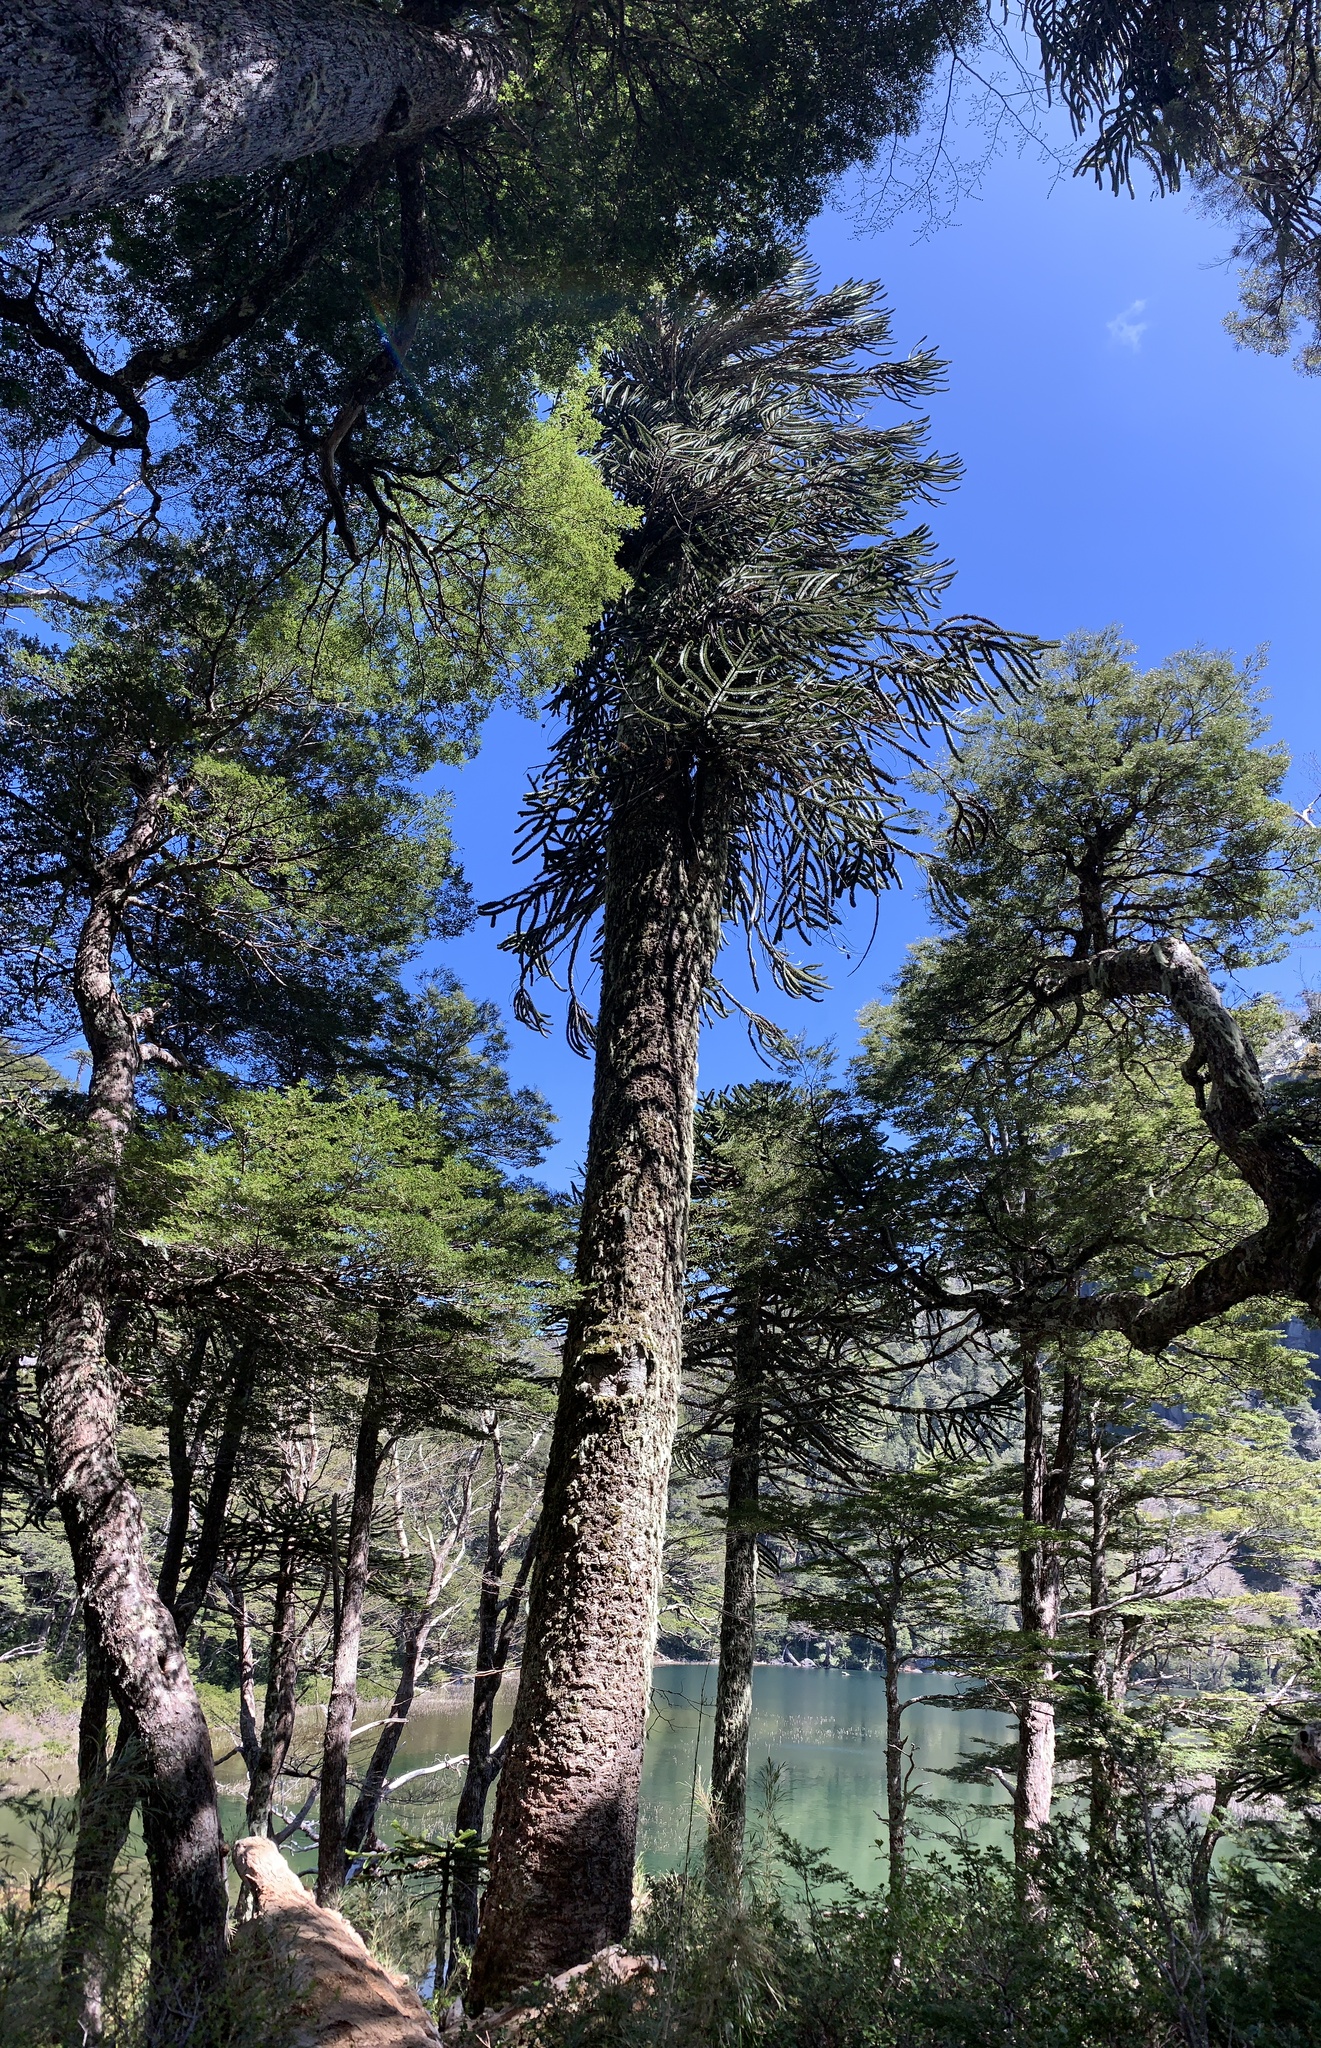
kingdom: Plantae
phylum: Tracheophyta
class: Pinopsida
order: Pinales
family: Araucariaceae
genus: Araucaria
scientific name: Araucaria araucana
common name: Monkey-puzzle
